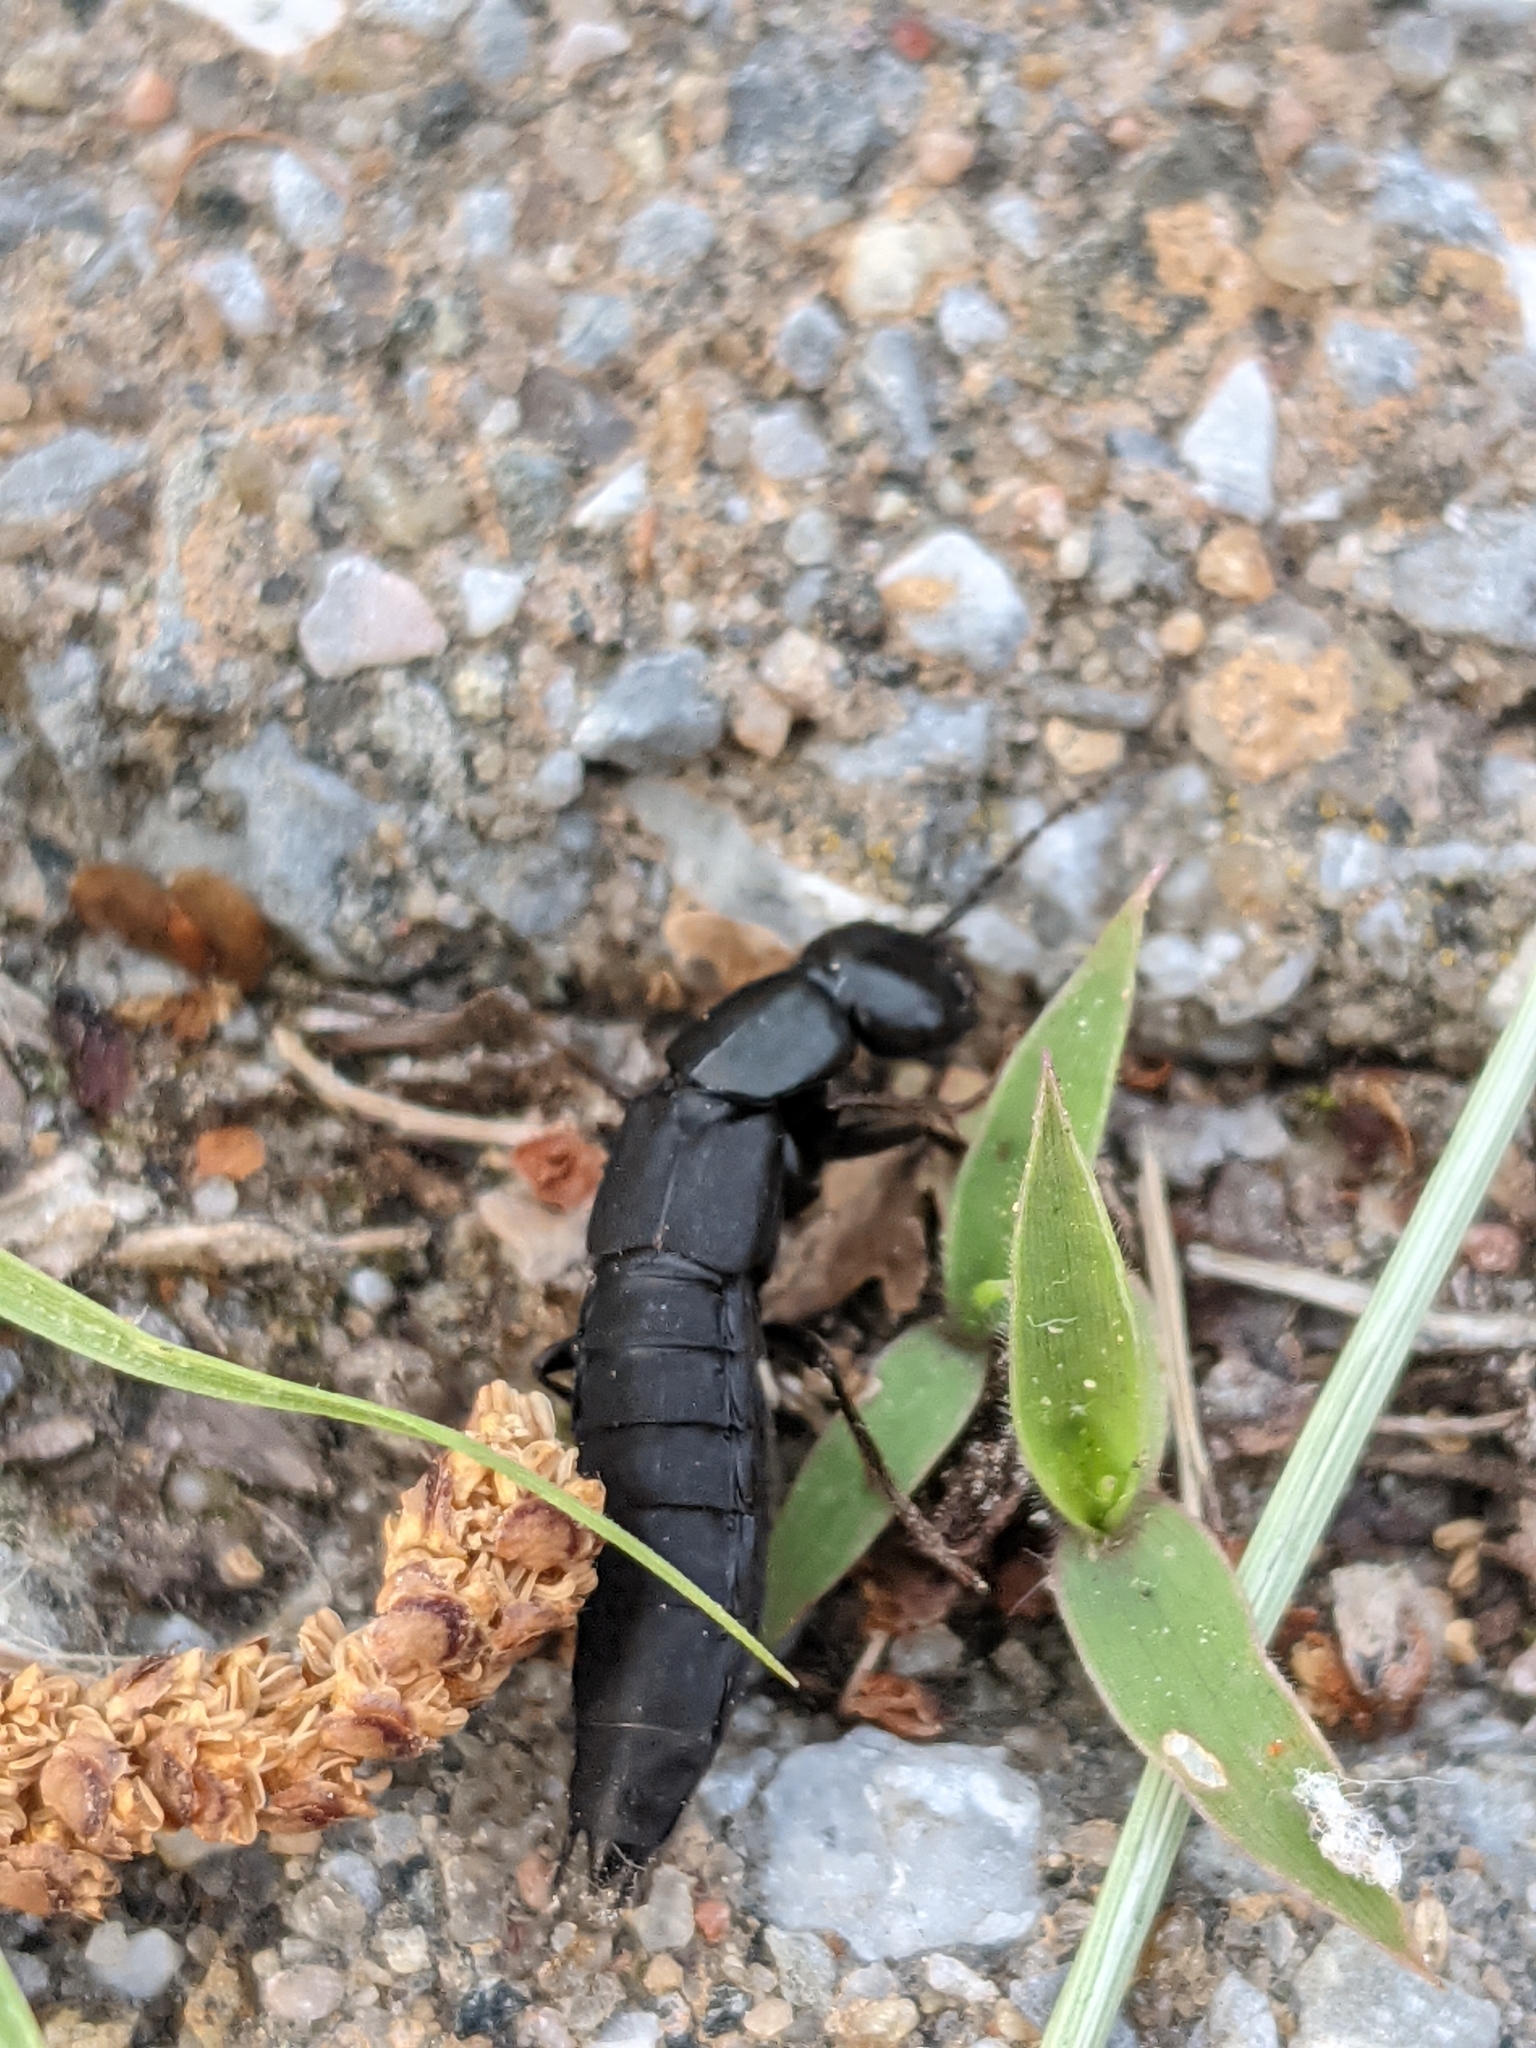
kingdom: Animalia
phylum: Arthropoda
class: Insecta
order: Coleoptera
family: Staphylinidae
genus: Tasgius
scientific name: Tasgius melanarius
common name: Rove beetle
